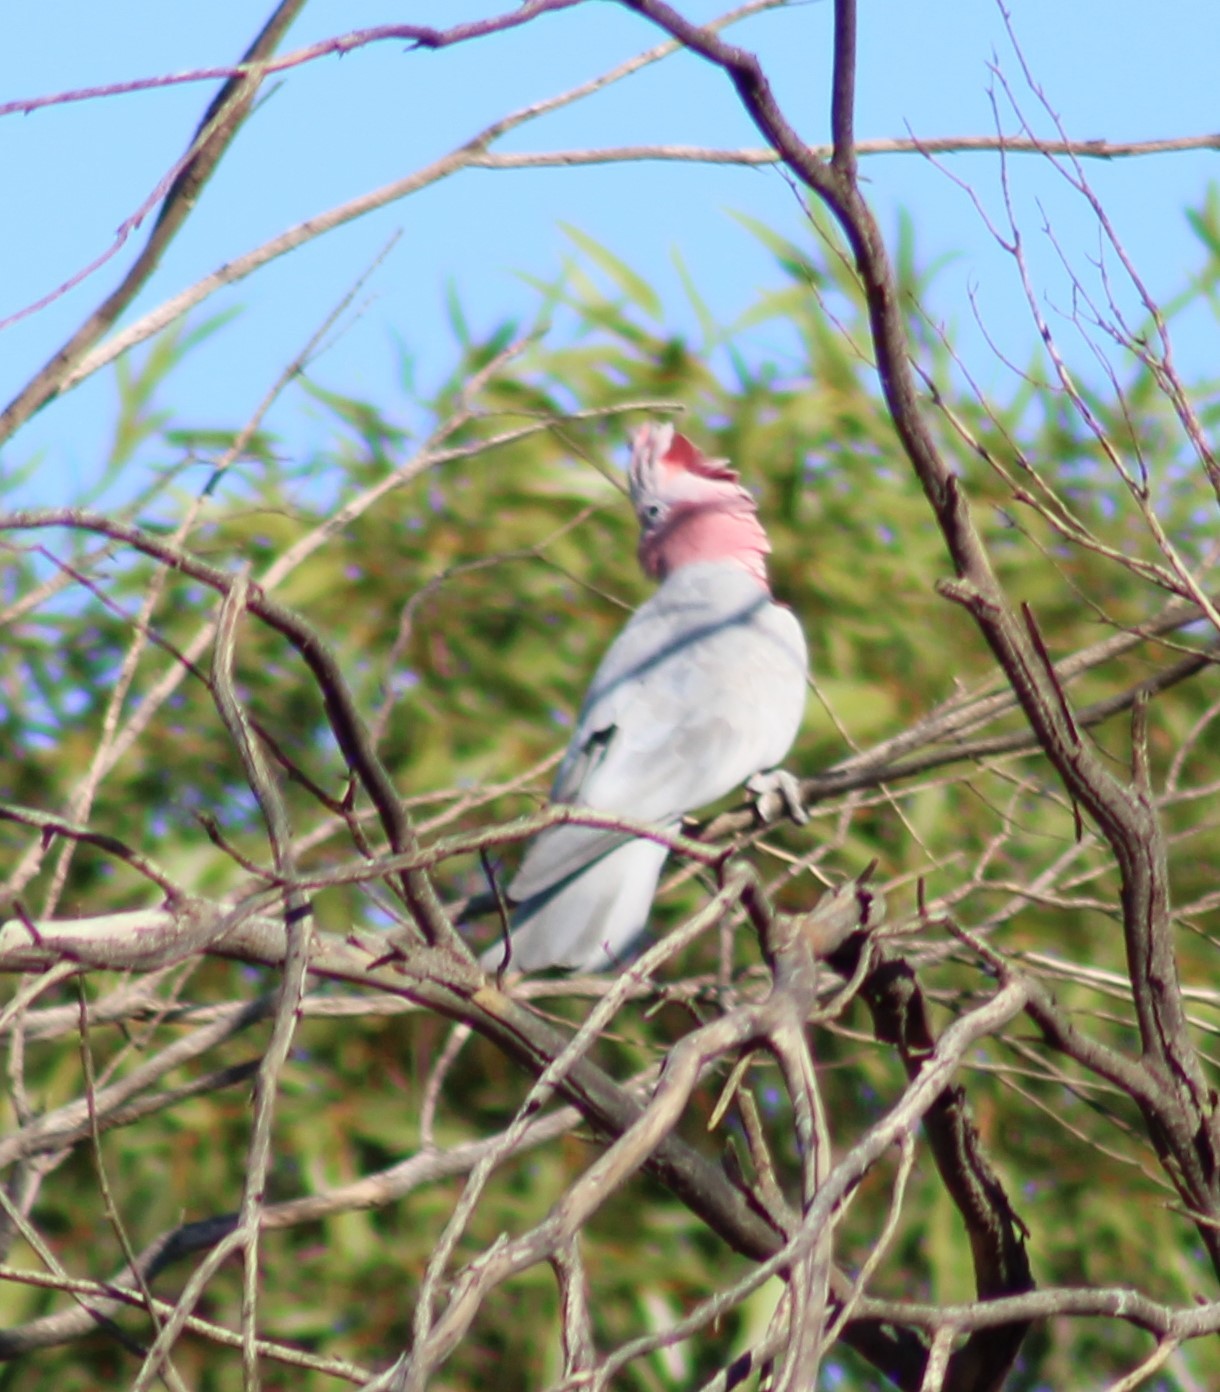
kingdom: Animalia
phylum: Chordata
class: Aves
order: Psittaciformes
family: Psittacidae
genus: Eolophus
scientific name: Eolophus roseicapilla
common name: Galah
